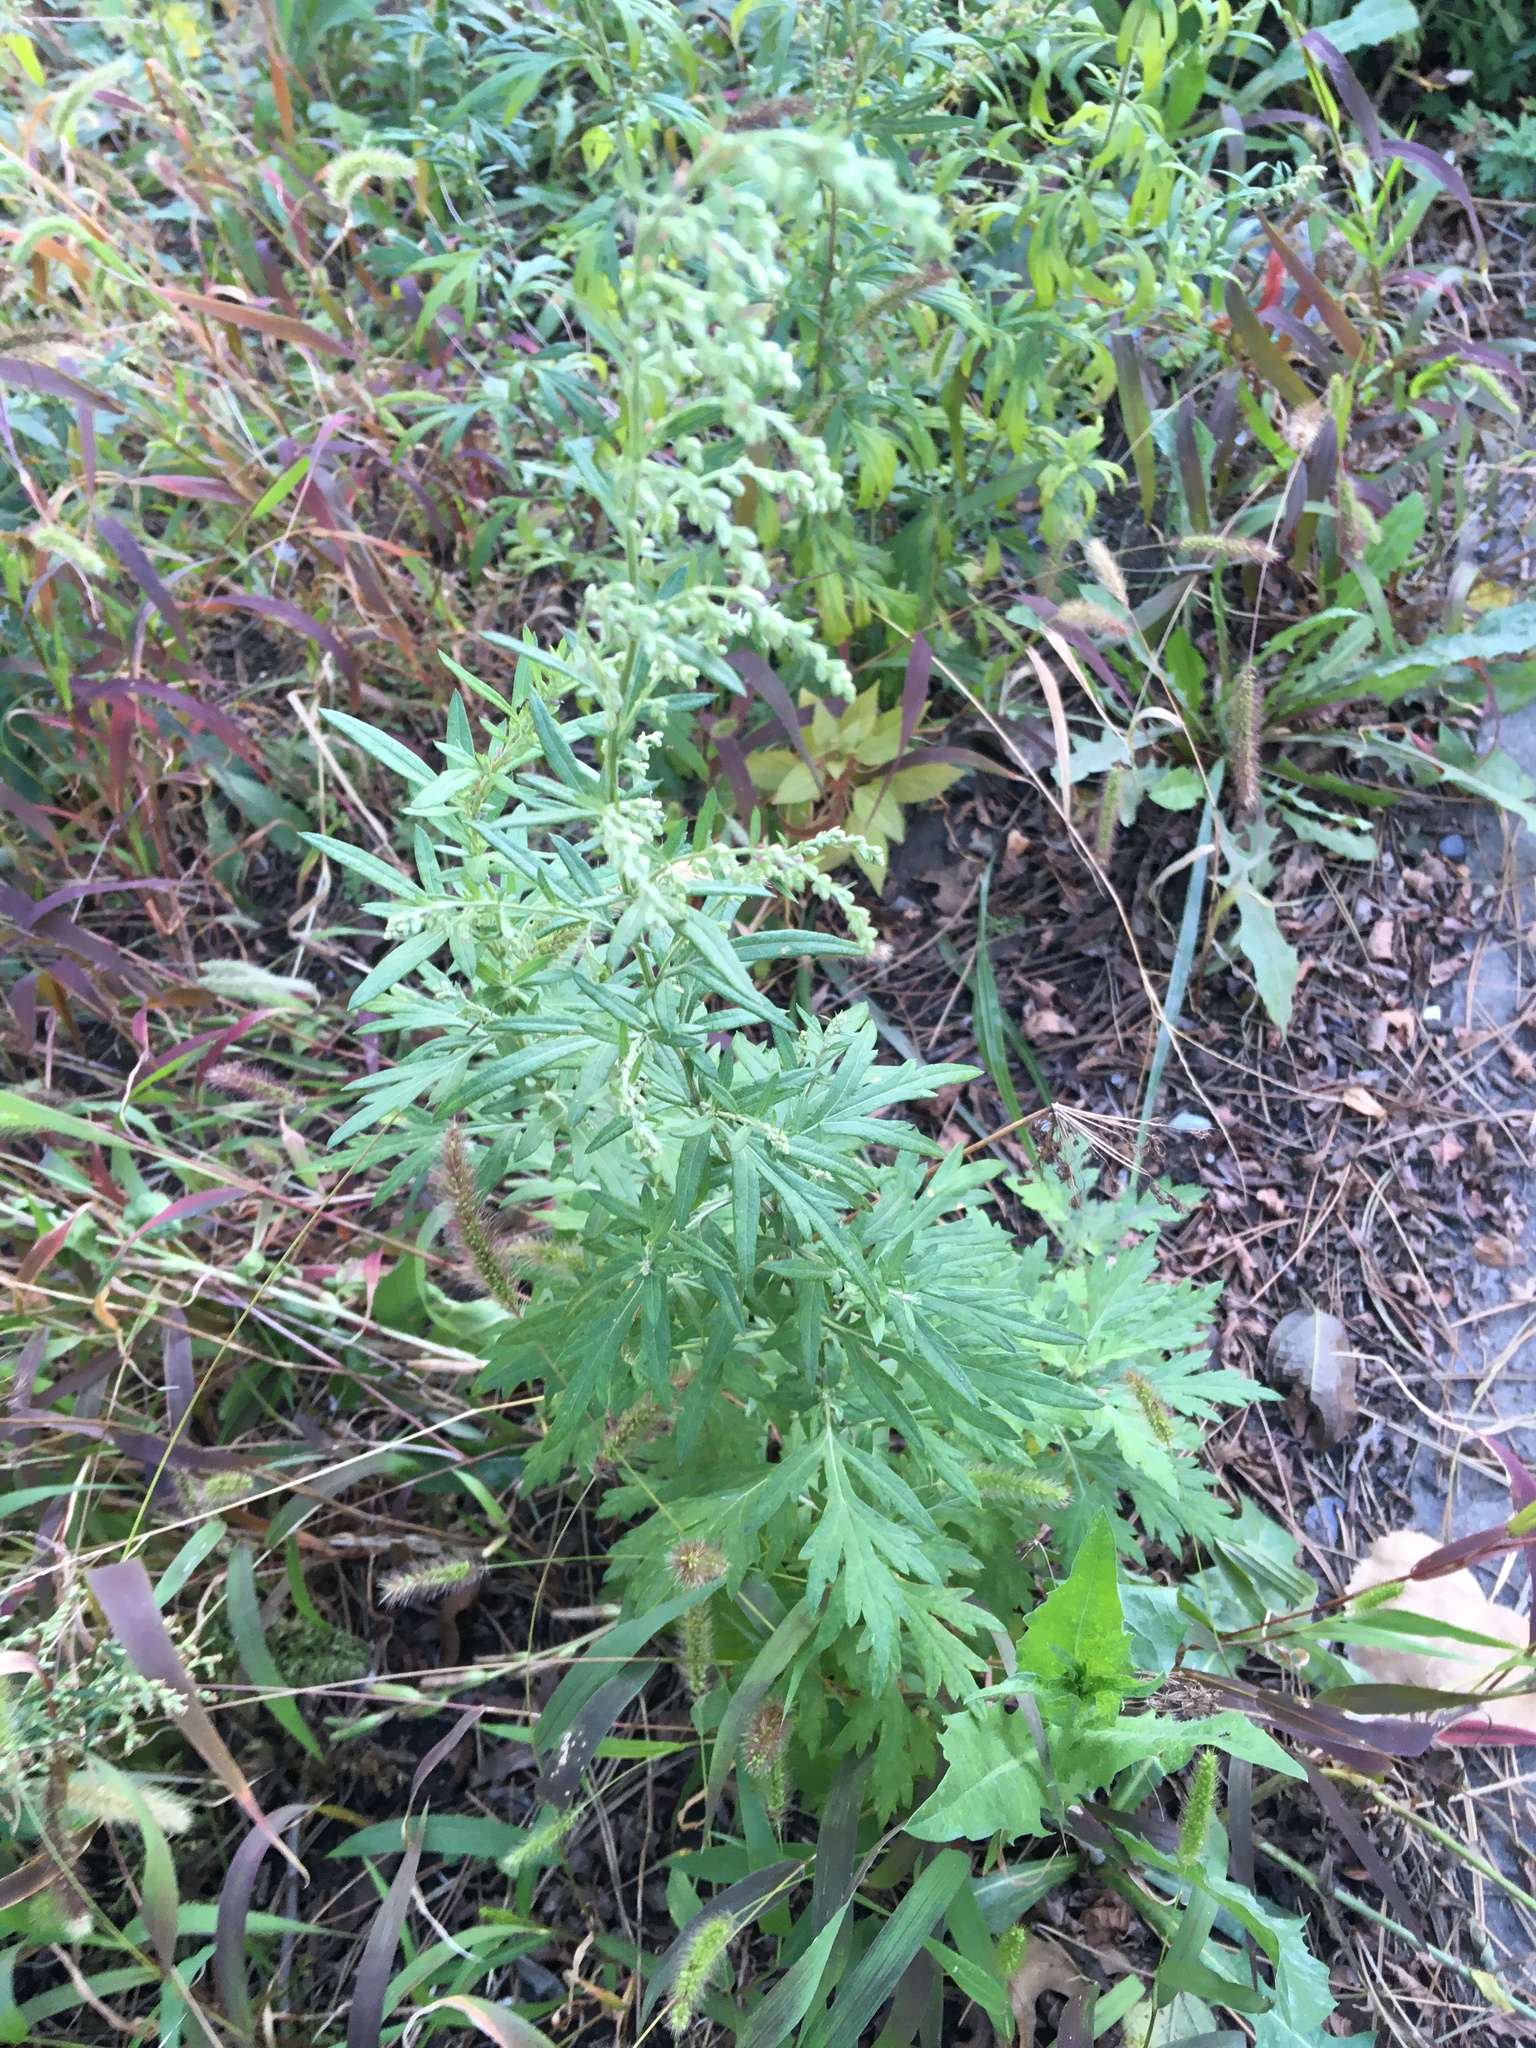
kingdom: Plantae
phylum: Tracheophyta
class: Magnoliopsida
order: Asterales
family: Asteraceae
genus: Artemisia
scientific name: Artemisia vulgaris
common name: Mugwort
